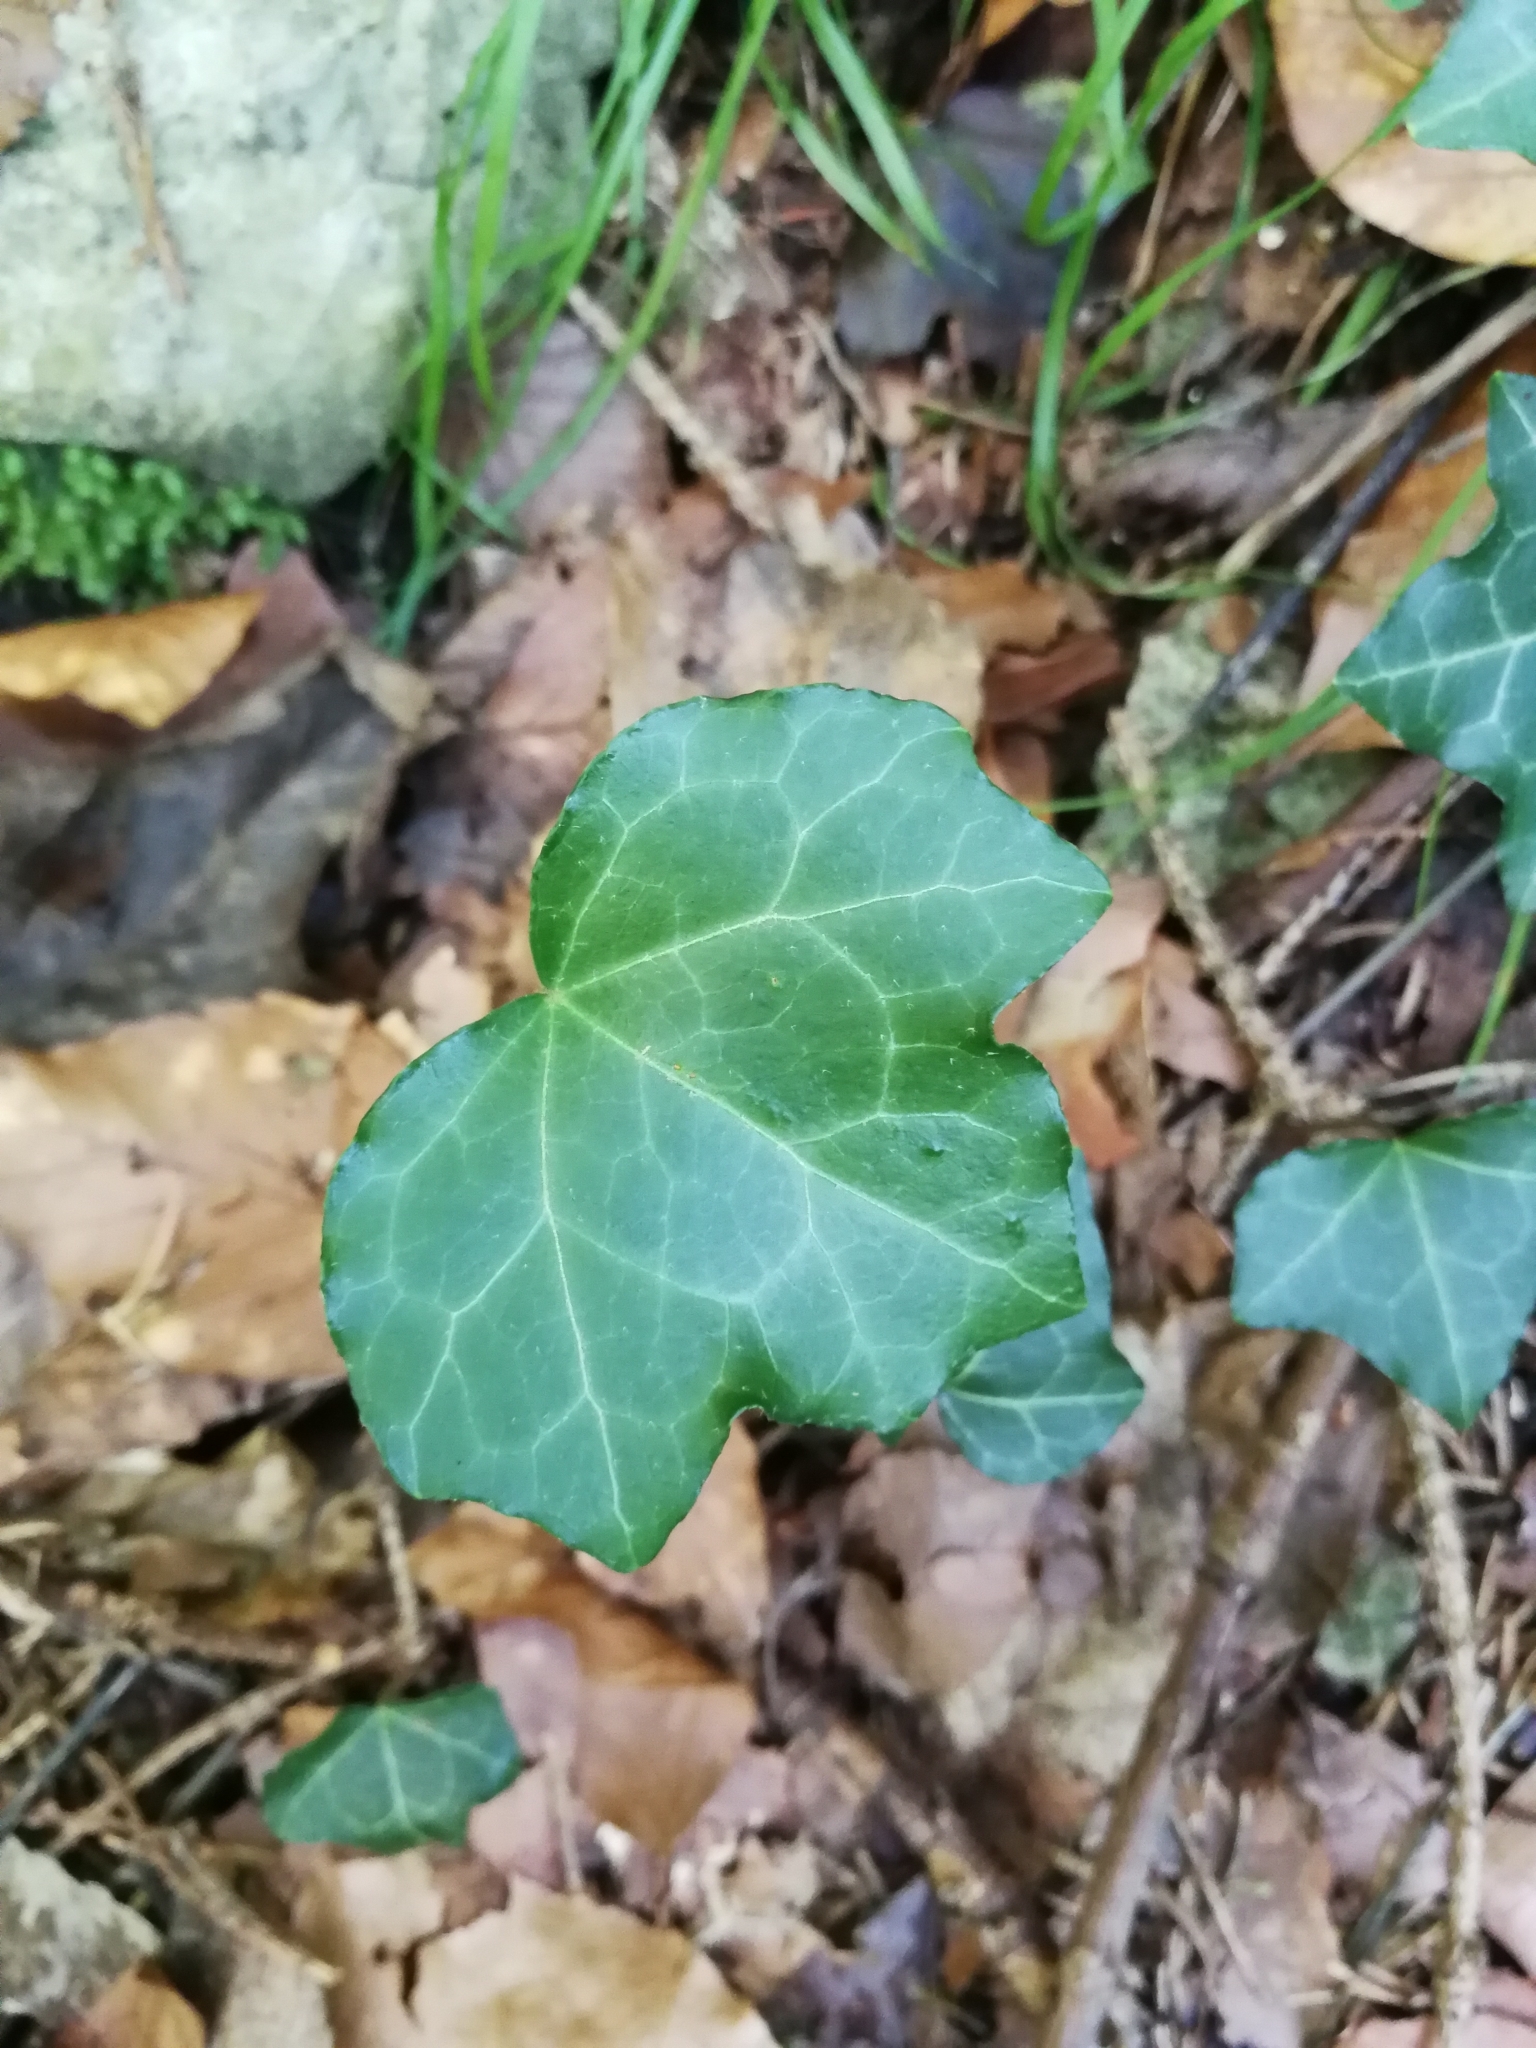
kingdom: Plantae
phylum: Tracheophyta
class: Magnoliopsida
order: Apiales
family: Araliaceae
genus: Hedera
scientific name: Hedera helix
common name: Ivy
